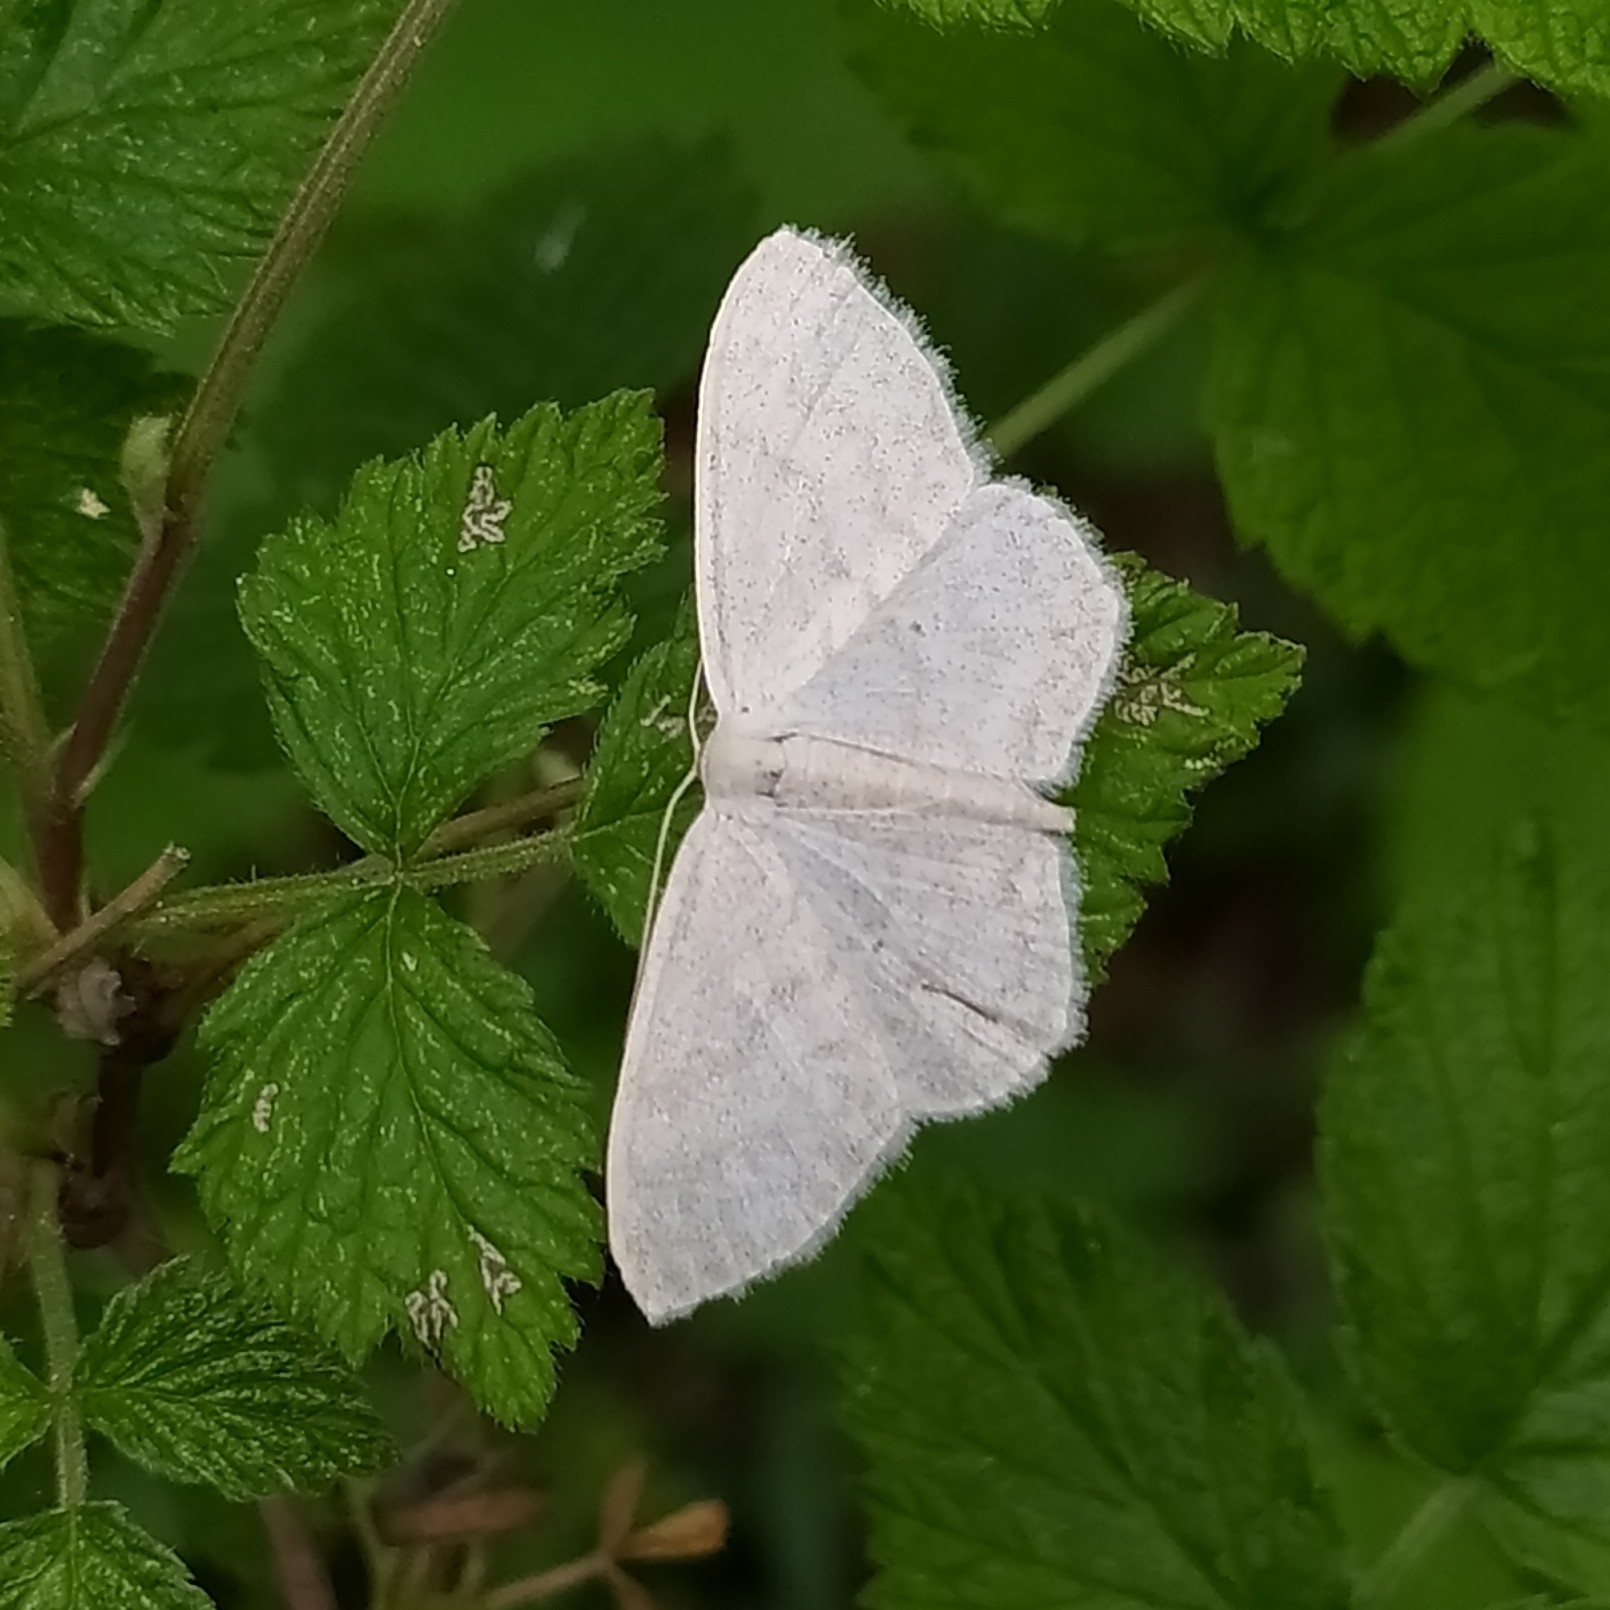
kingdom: Animalia
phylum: Arthropoda
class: Insecta
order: Lepidoptera
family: Geometridae
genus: Scopula
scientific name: Scopula floslactata
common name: Cream wave
